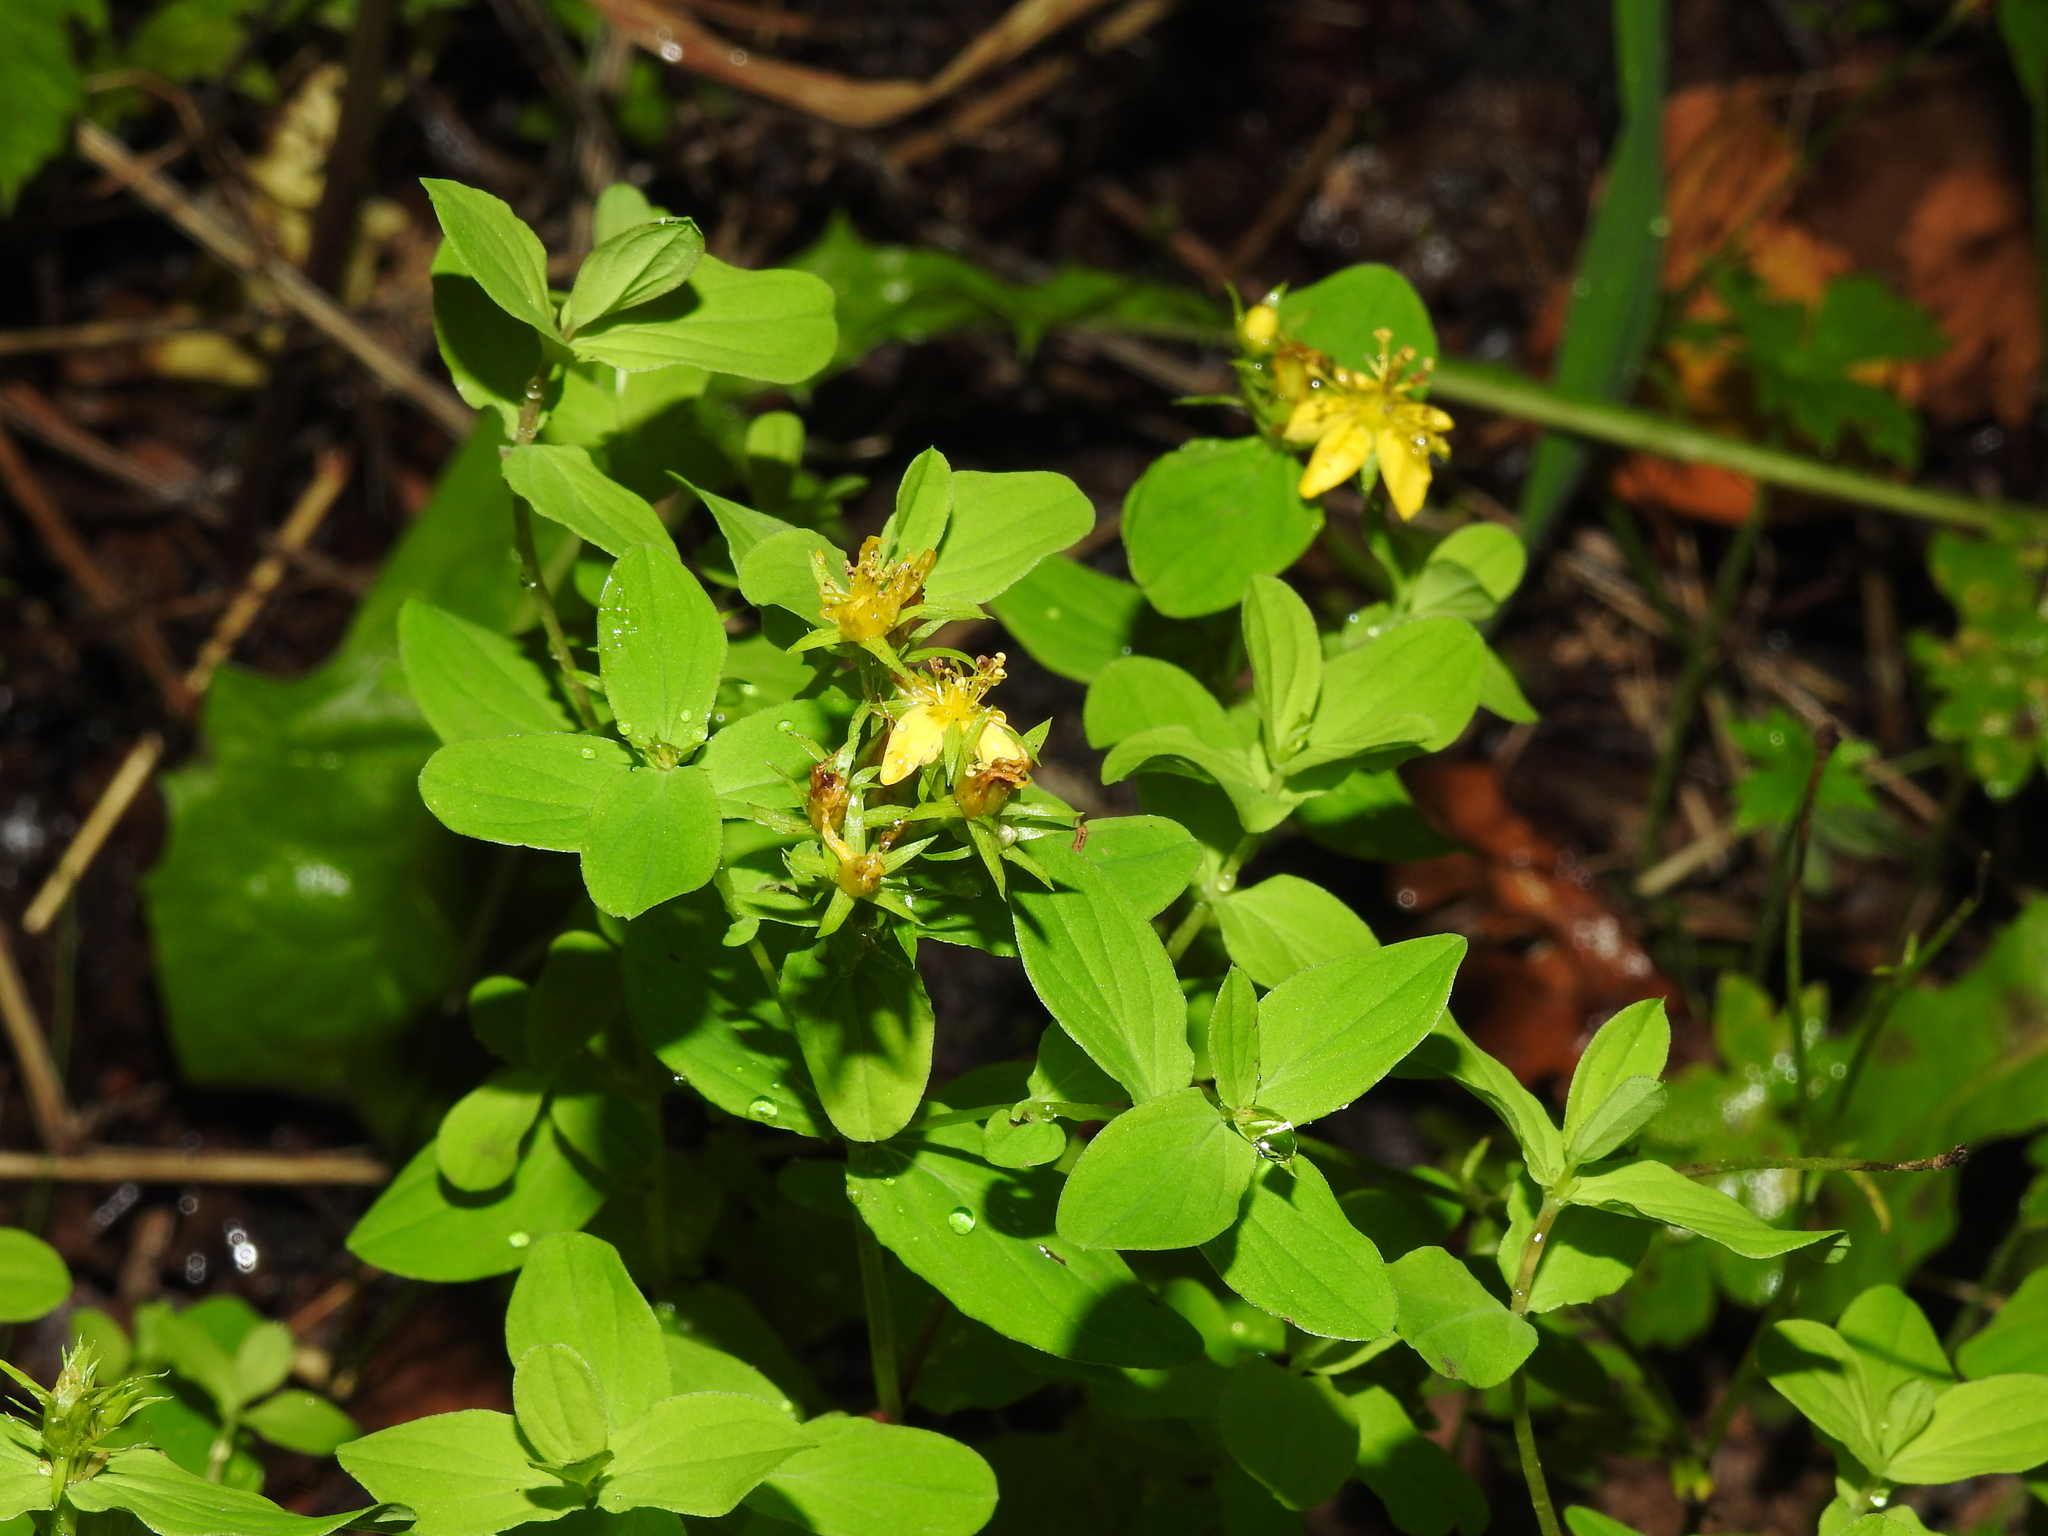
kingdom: Plantae
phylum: Tracheophyta
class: Magnoliopsida
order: Malpighiales
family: Hypericaceae
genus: Hypericum
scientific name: Hypericum tetrapterum
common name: Square-stalked st. john's-wort
